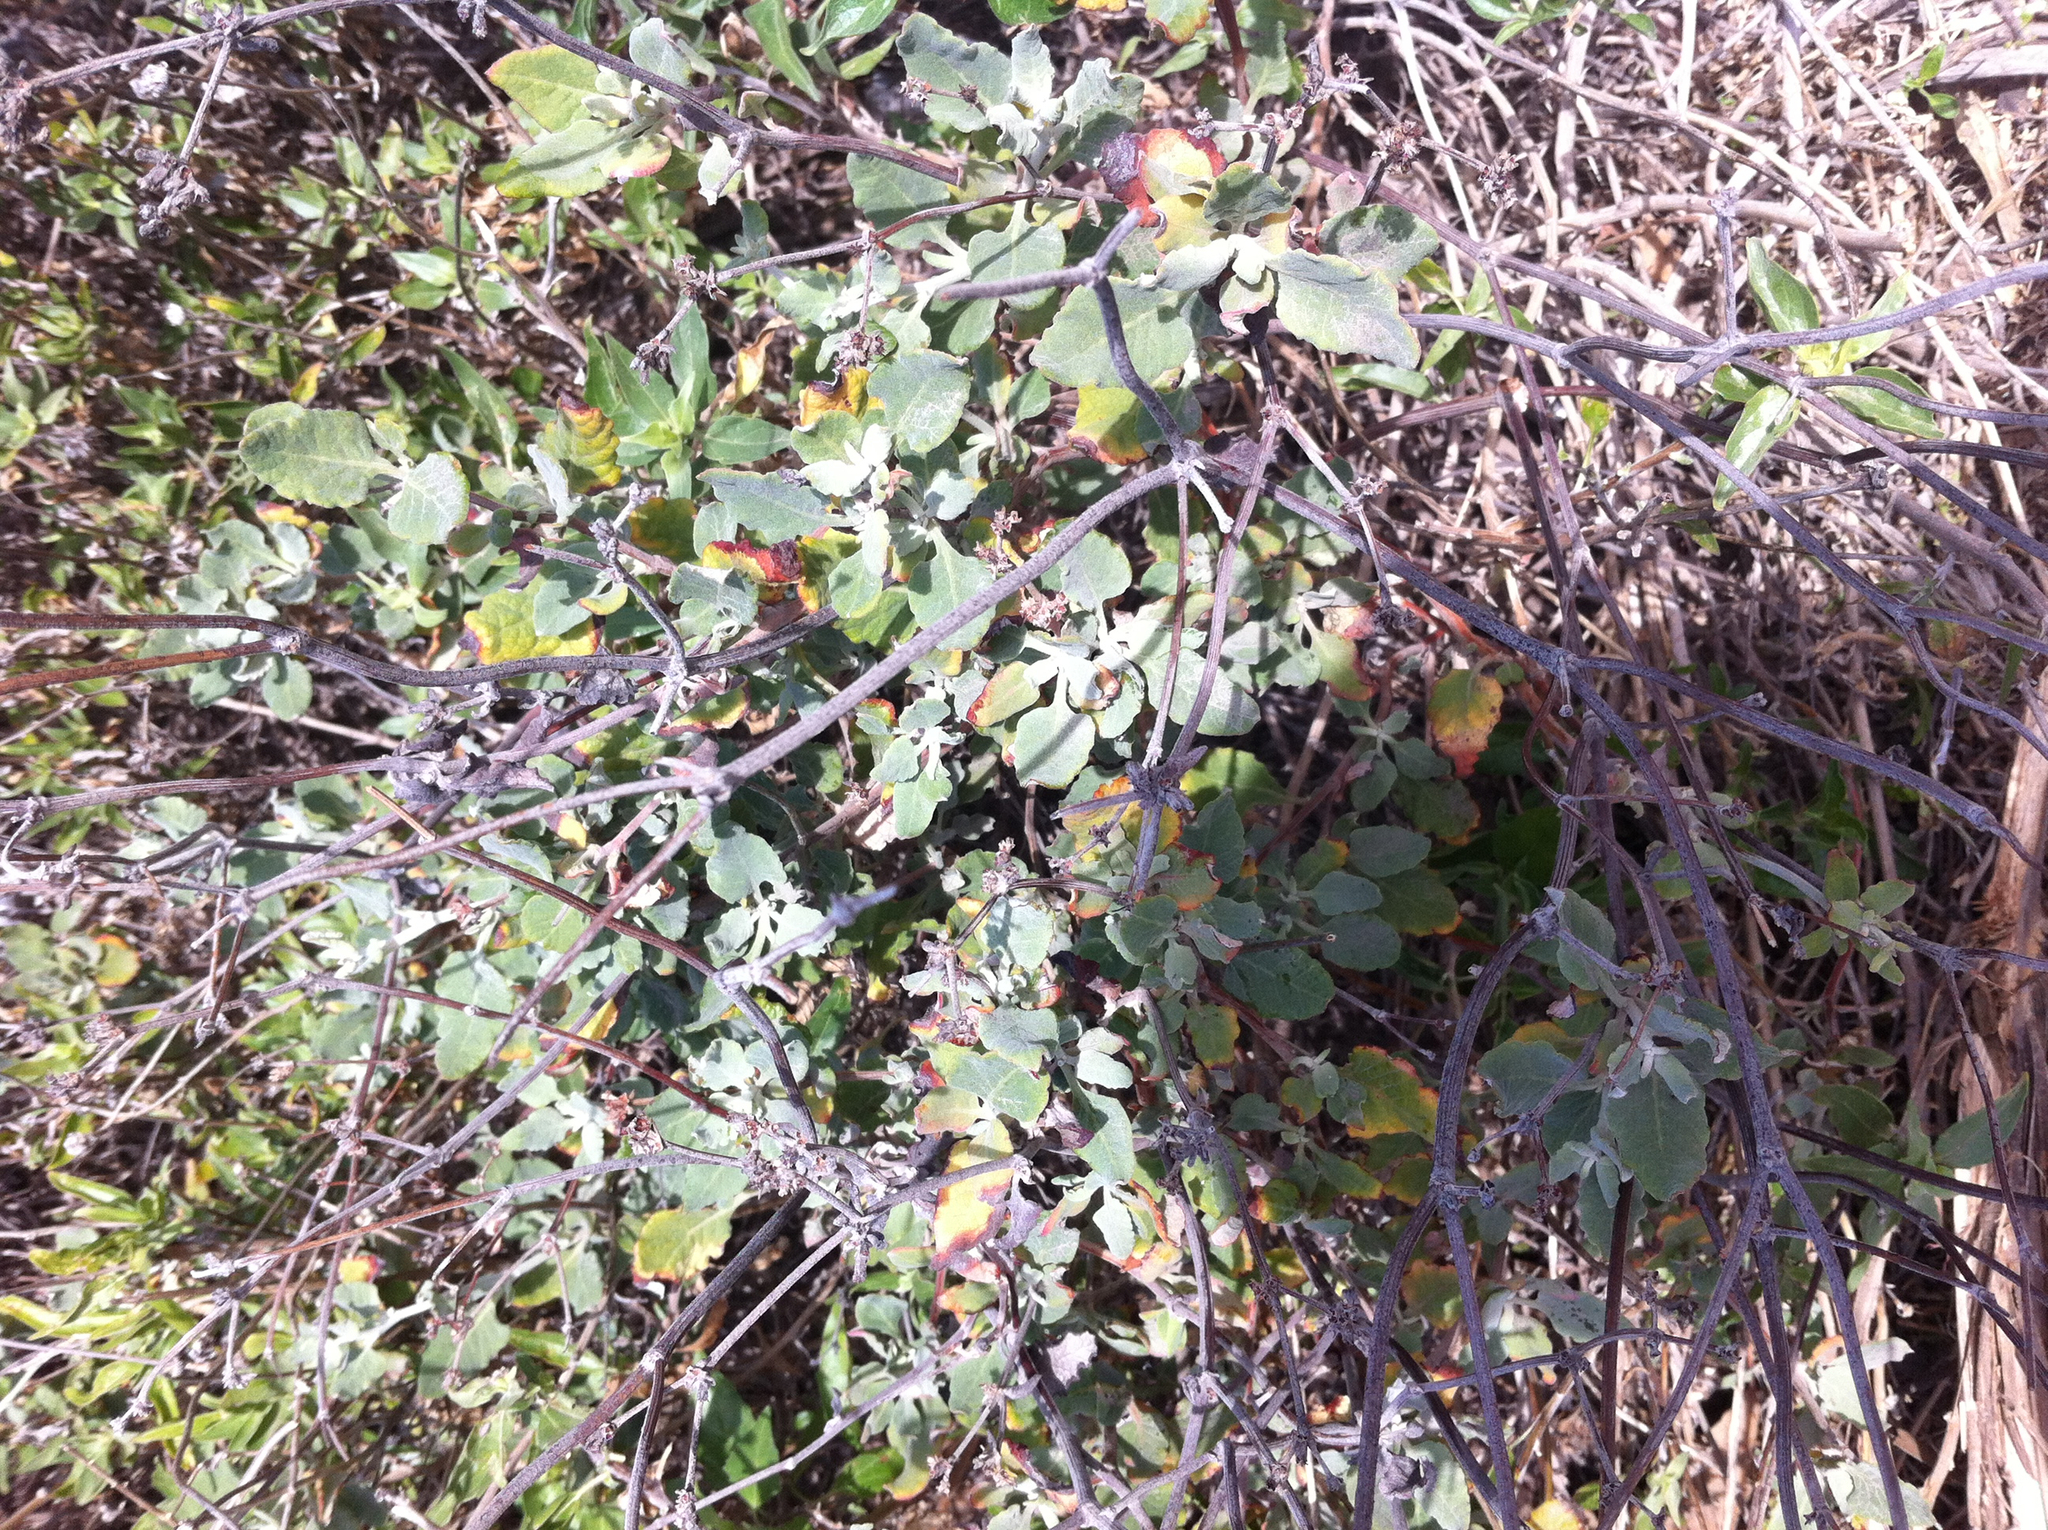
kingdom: Plantae
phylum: Tracheophyta
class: Magnoliopsida
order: Caryophyllales
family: Polygonaceae
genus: Eriogonum
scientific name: Eriogonum cinereum
